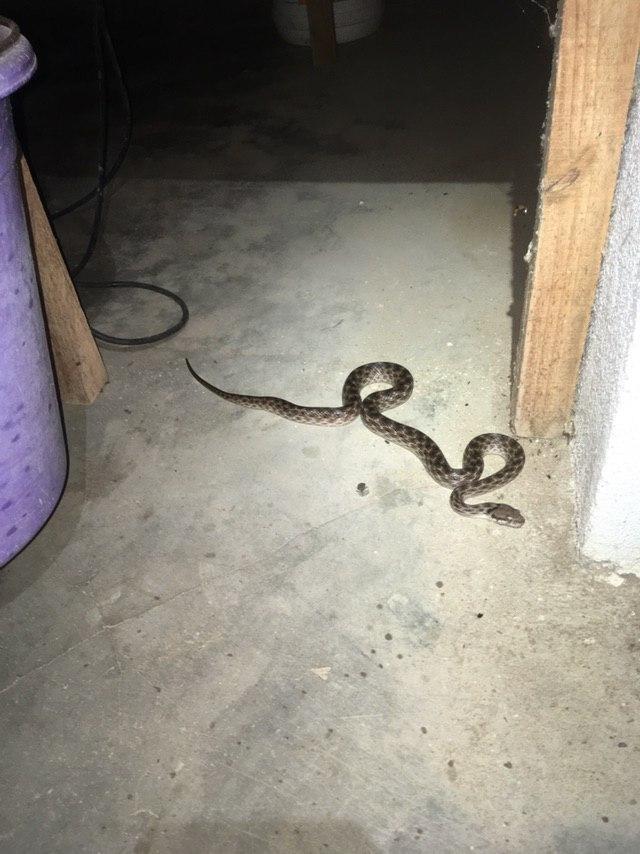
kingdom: Animalia
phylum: Chordata
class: Squamata
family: Pseudoxyrhophiidae
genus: Madagascarophis
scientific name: Madagascarophis colubrinus
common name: Madagascar night snake
